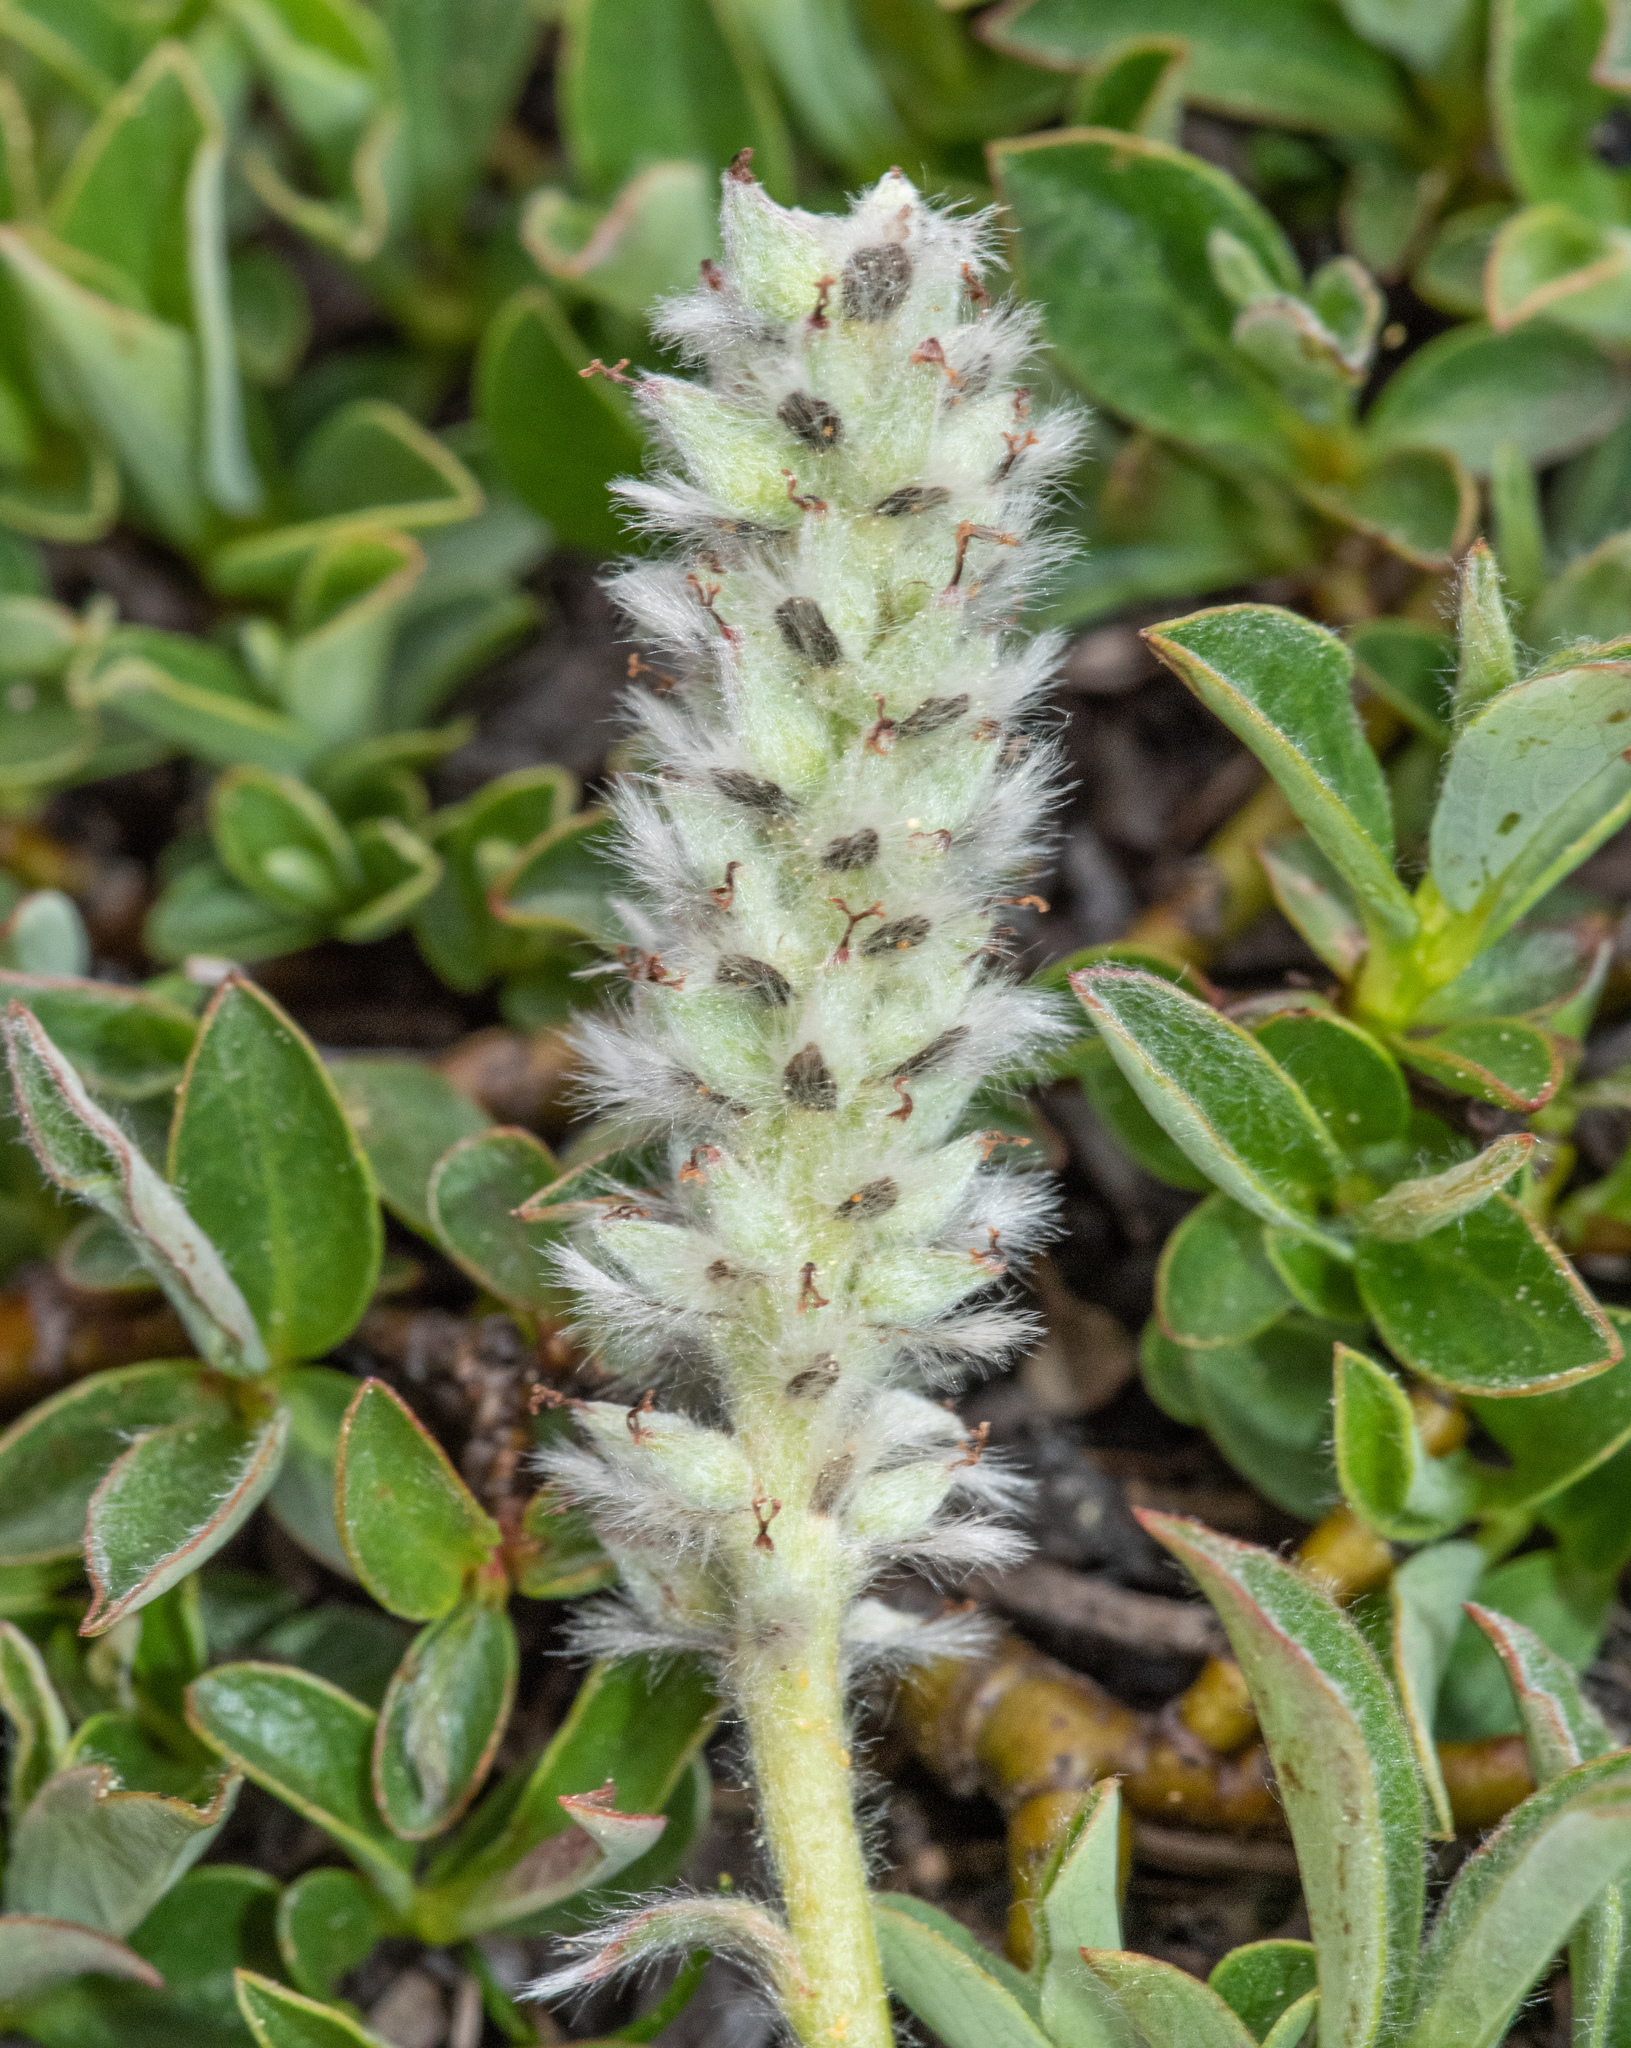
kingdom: Plantae
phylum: Tracheophyta
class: Magnoliopsida
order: Malpighiales
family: Salicaceae
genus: Salix
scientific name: Salix petrophila
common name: Rocky mountain willow
